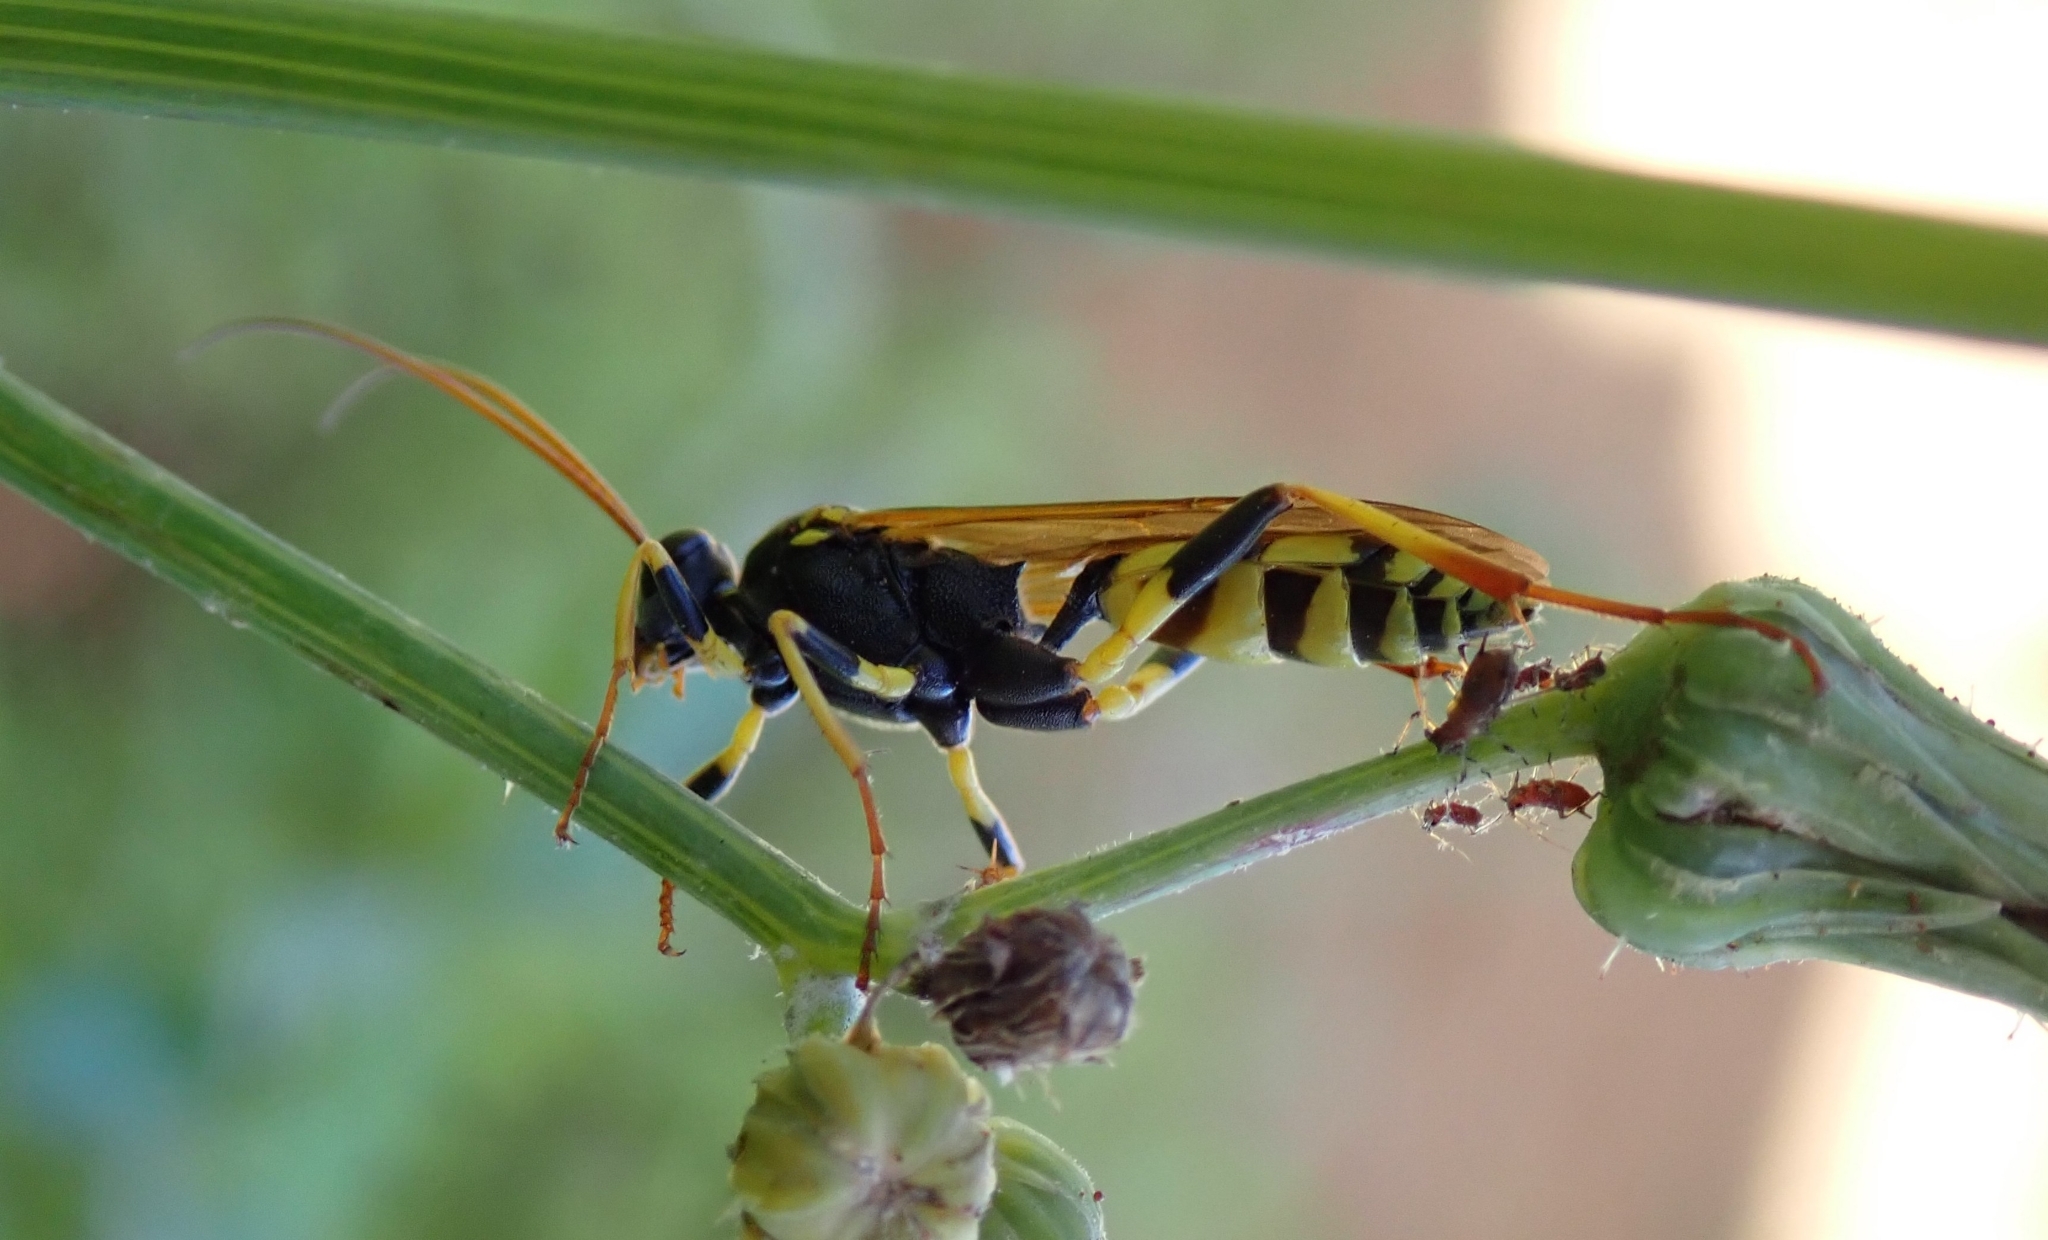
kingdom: Animalia
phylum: Arthropoda
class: Insecta
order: Hymenoptera
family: Ichneumonidae
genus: Amblyteles
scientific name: Amblyteles armatorius
